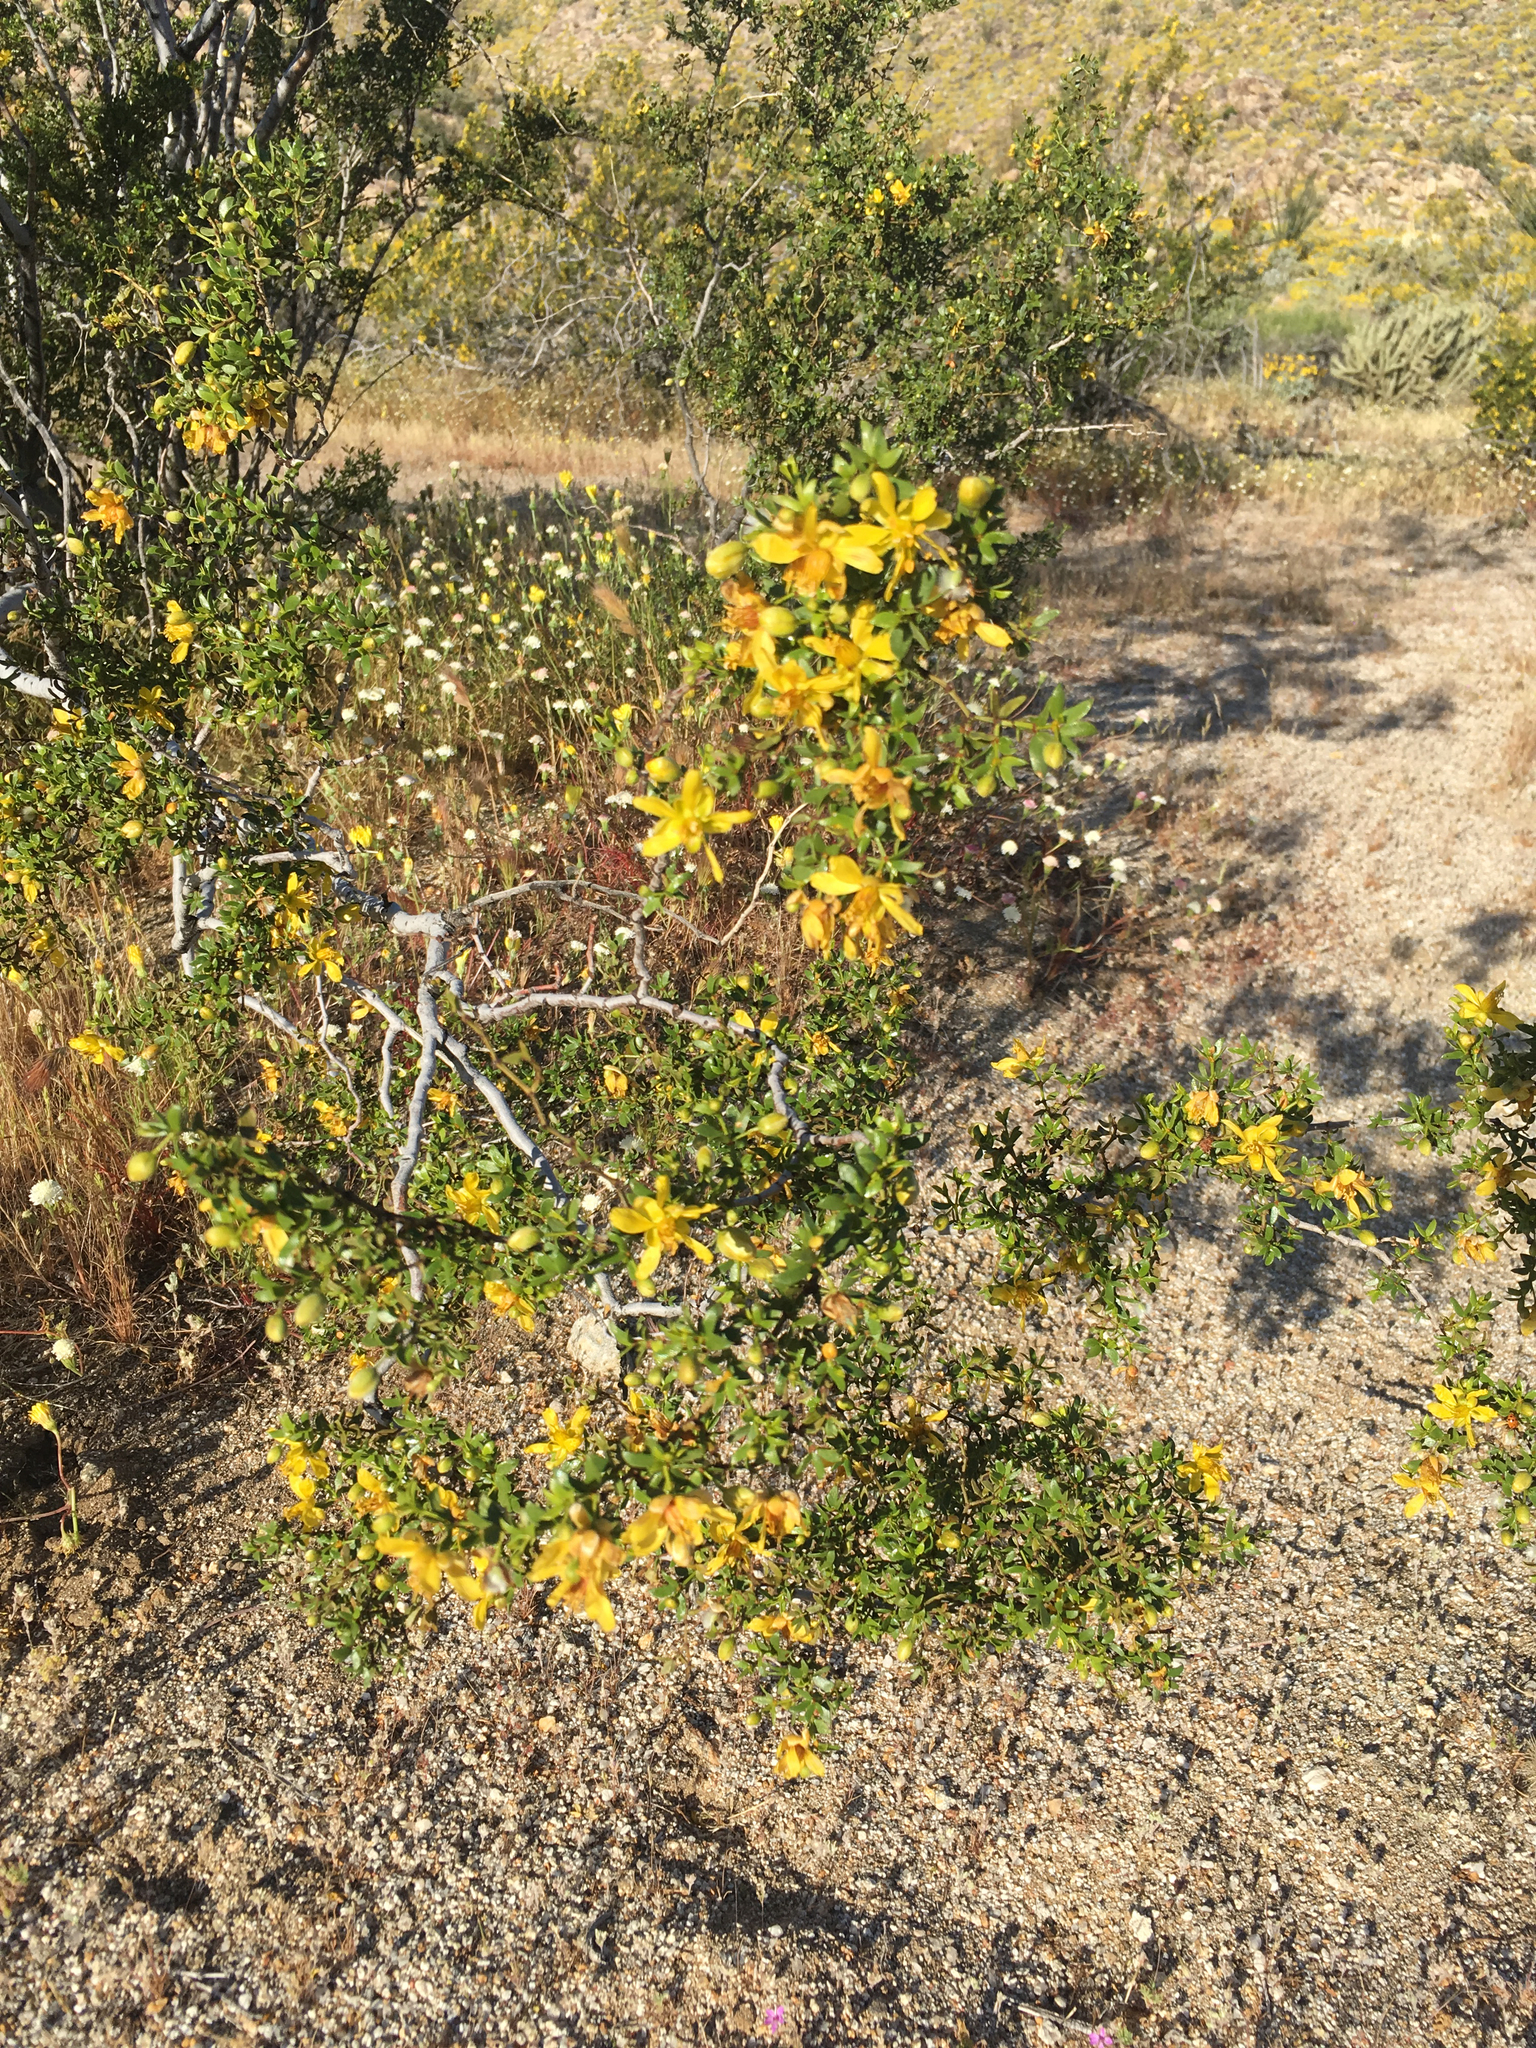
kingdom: Plantae
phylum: Tracheophyta
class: Magnoliopsida
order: Zygophyllales
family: Zygophyllaceae
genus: Larrea
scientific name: Larrea tridentata
